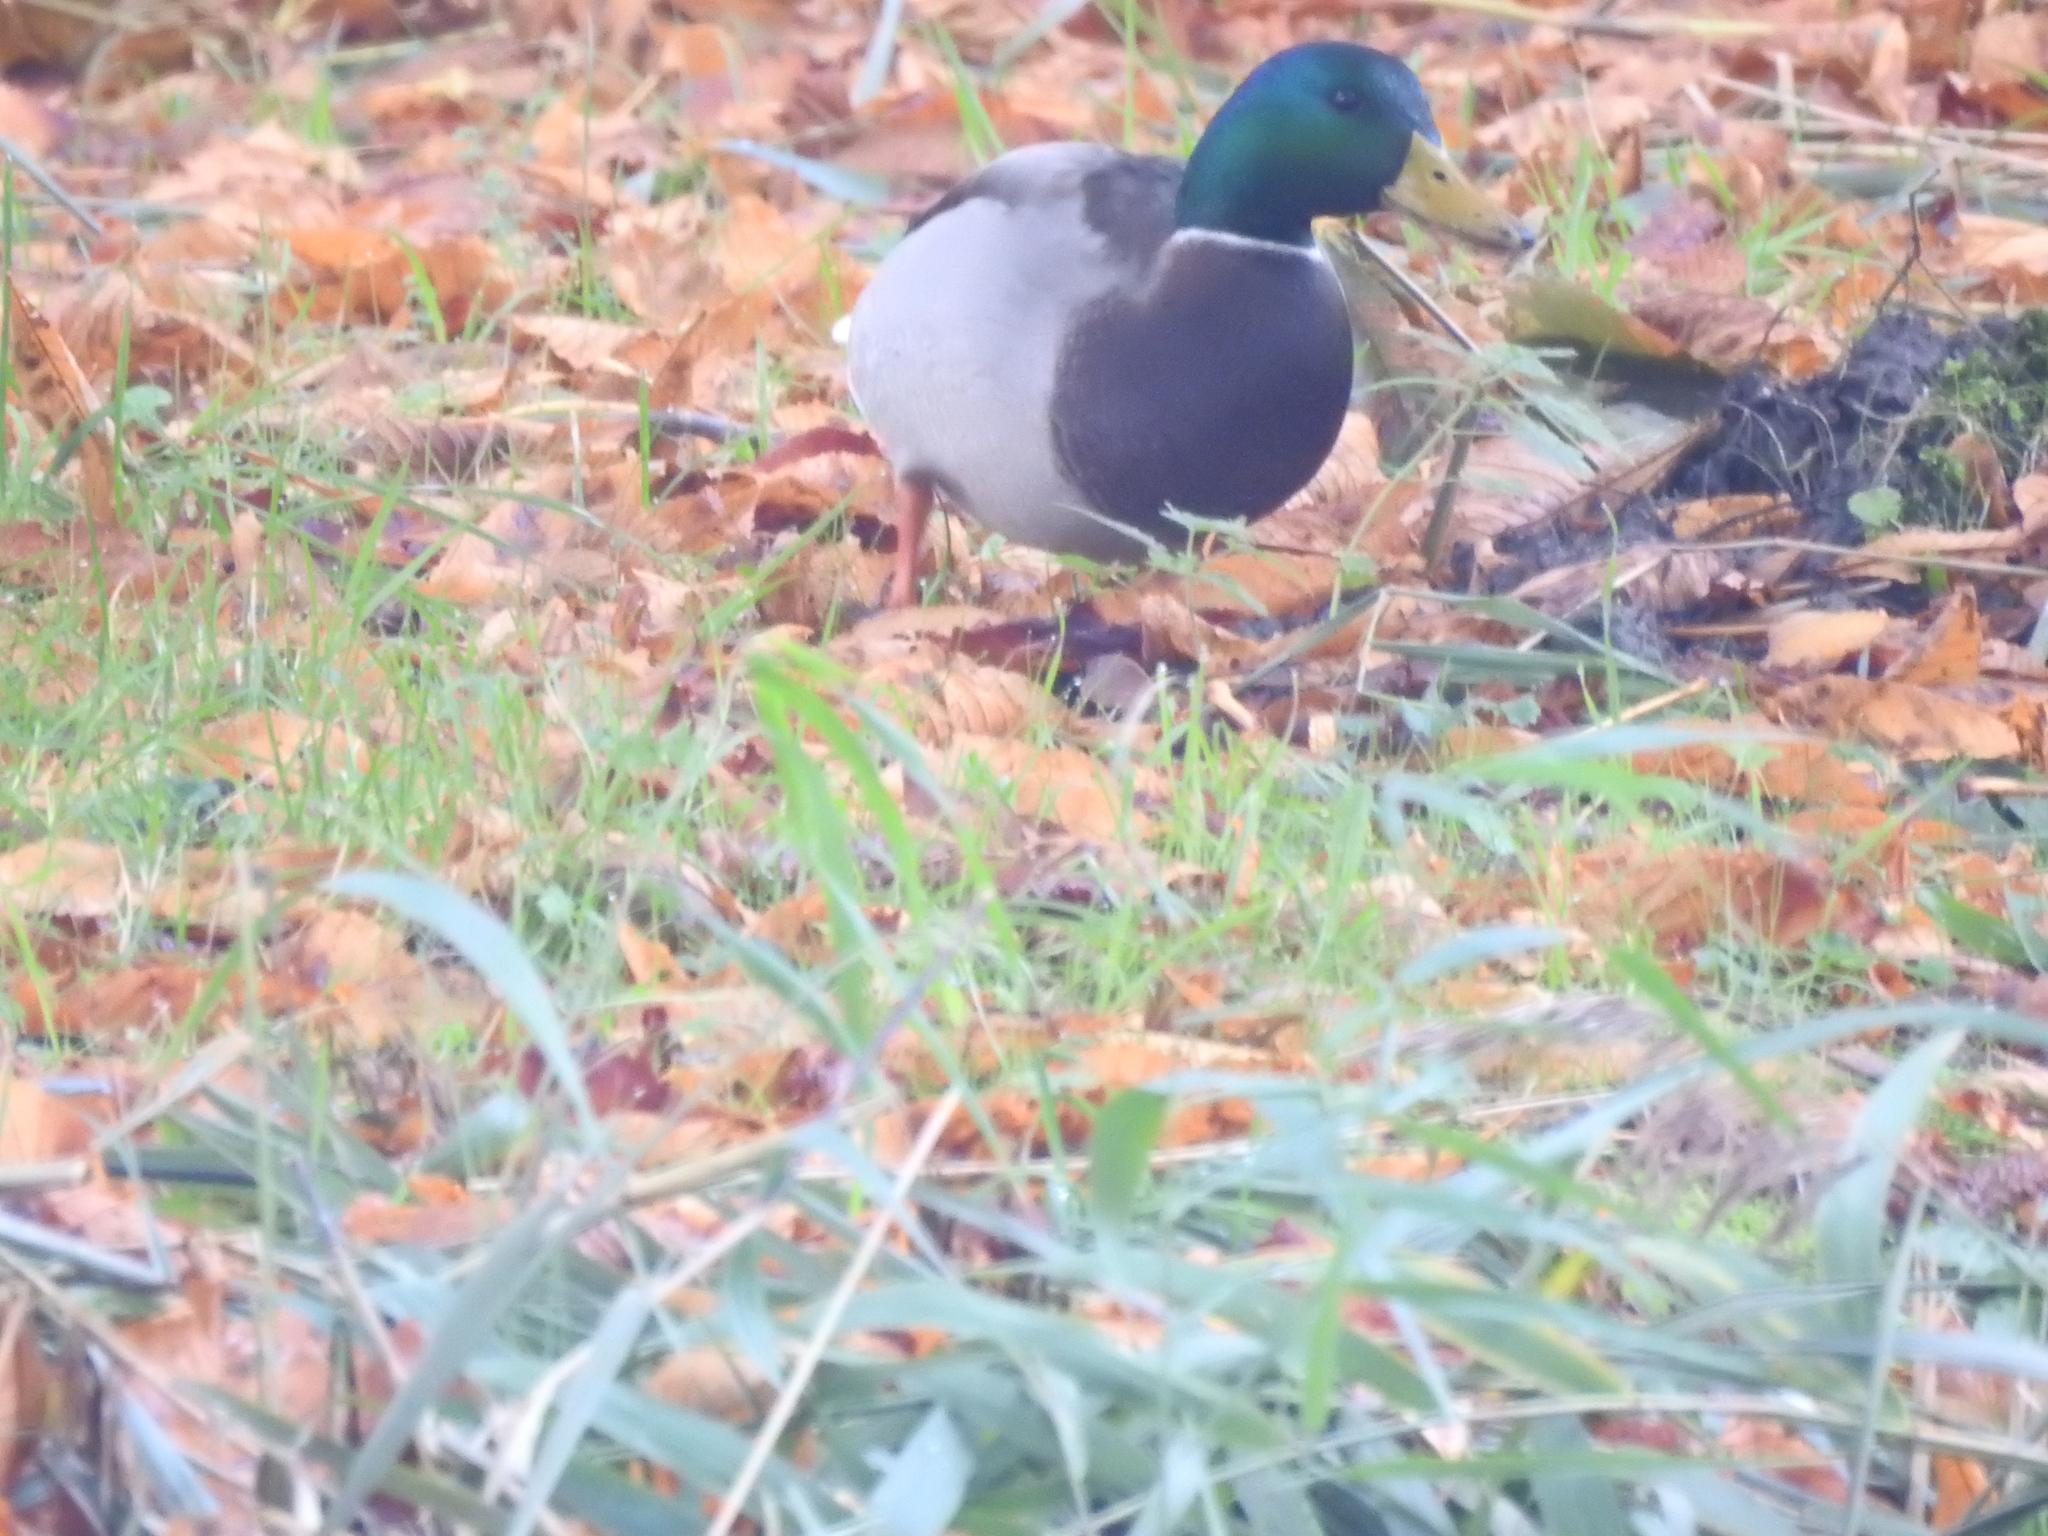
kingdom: Animalia
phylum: Chordata
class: Aves
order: Anseriformes
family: Anatidae
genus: Anas
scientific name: Anas platyrhynchos
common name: Mallard
